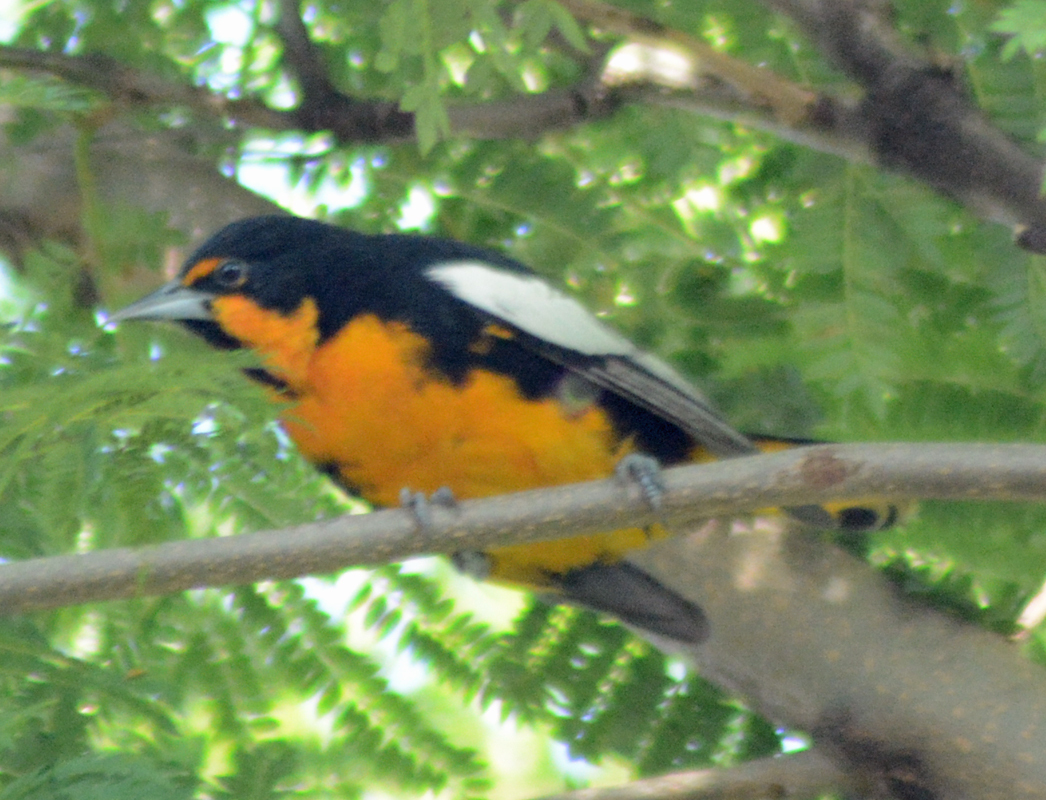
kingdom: Animalia
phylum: Chordata
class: Aves
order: Passeriformes
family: Icteridae
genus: Icterus
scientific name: Icterus abeillei
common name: Black-backed oriole
